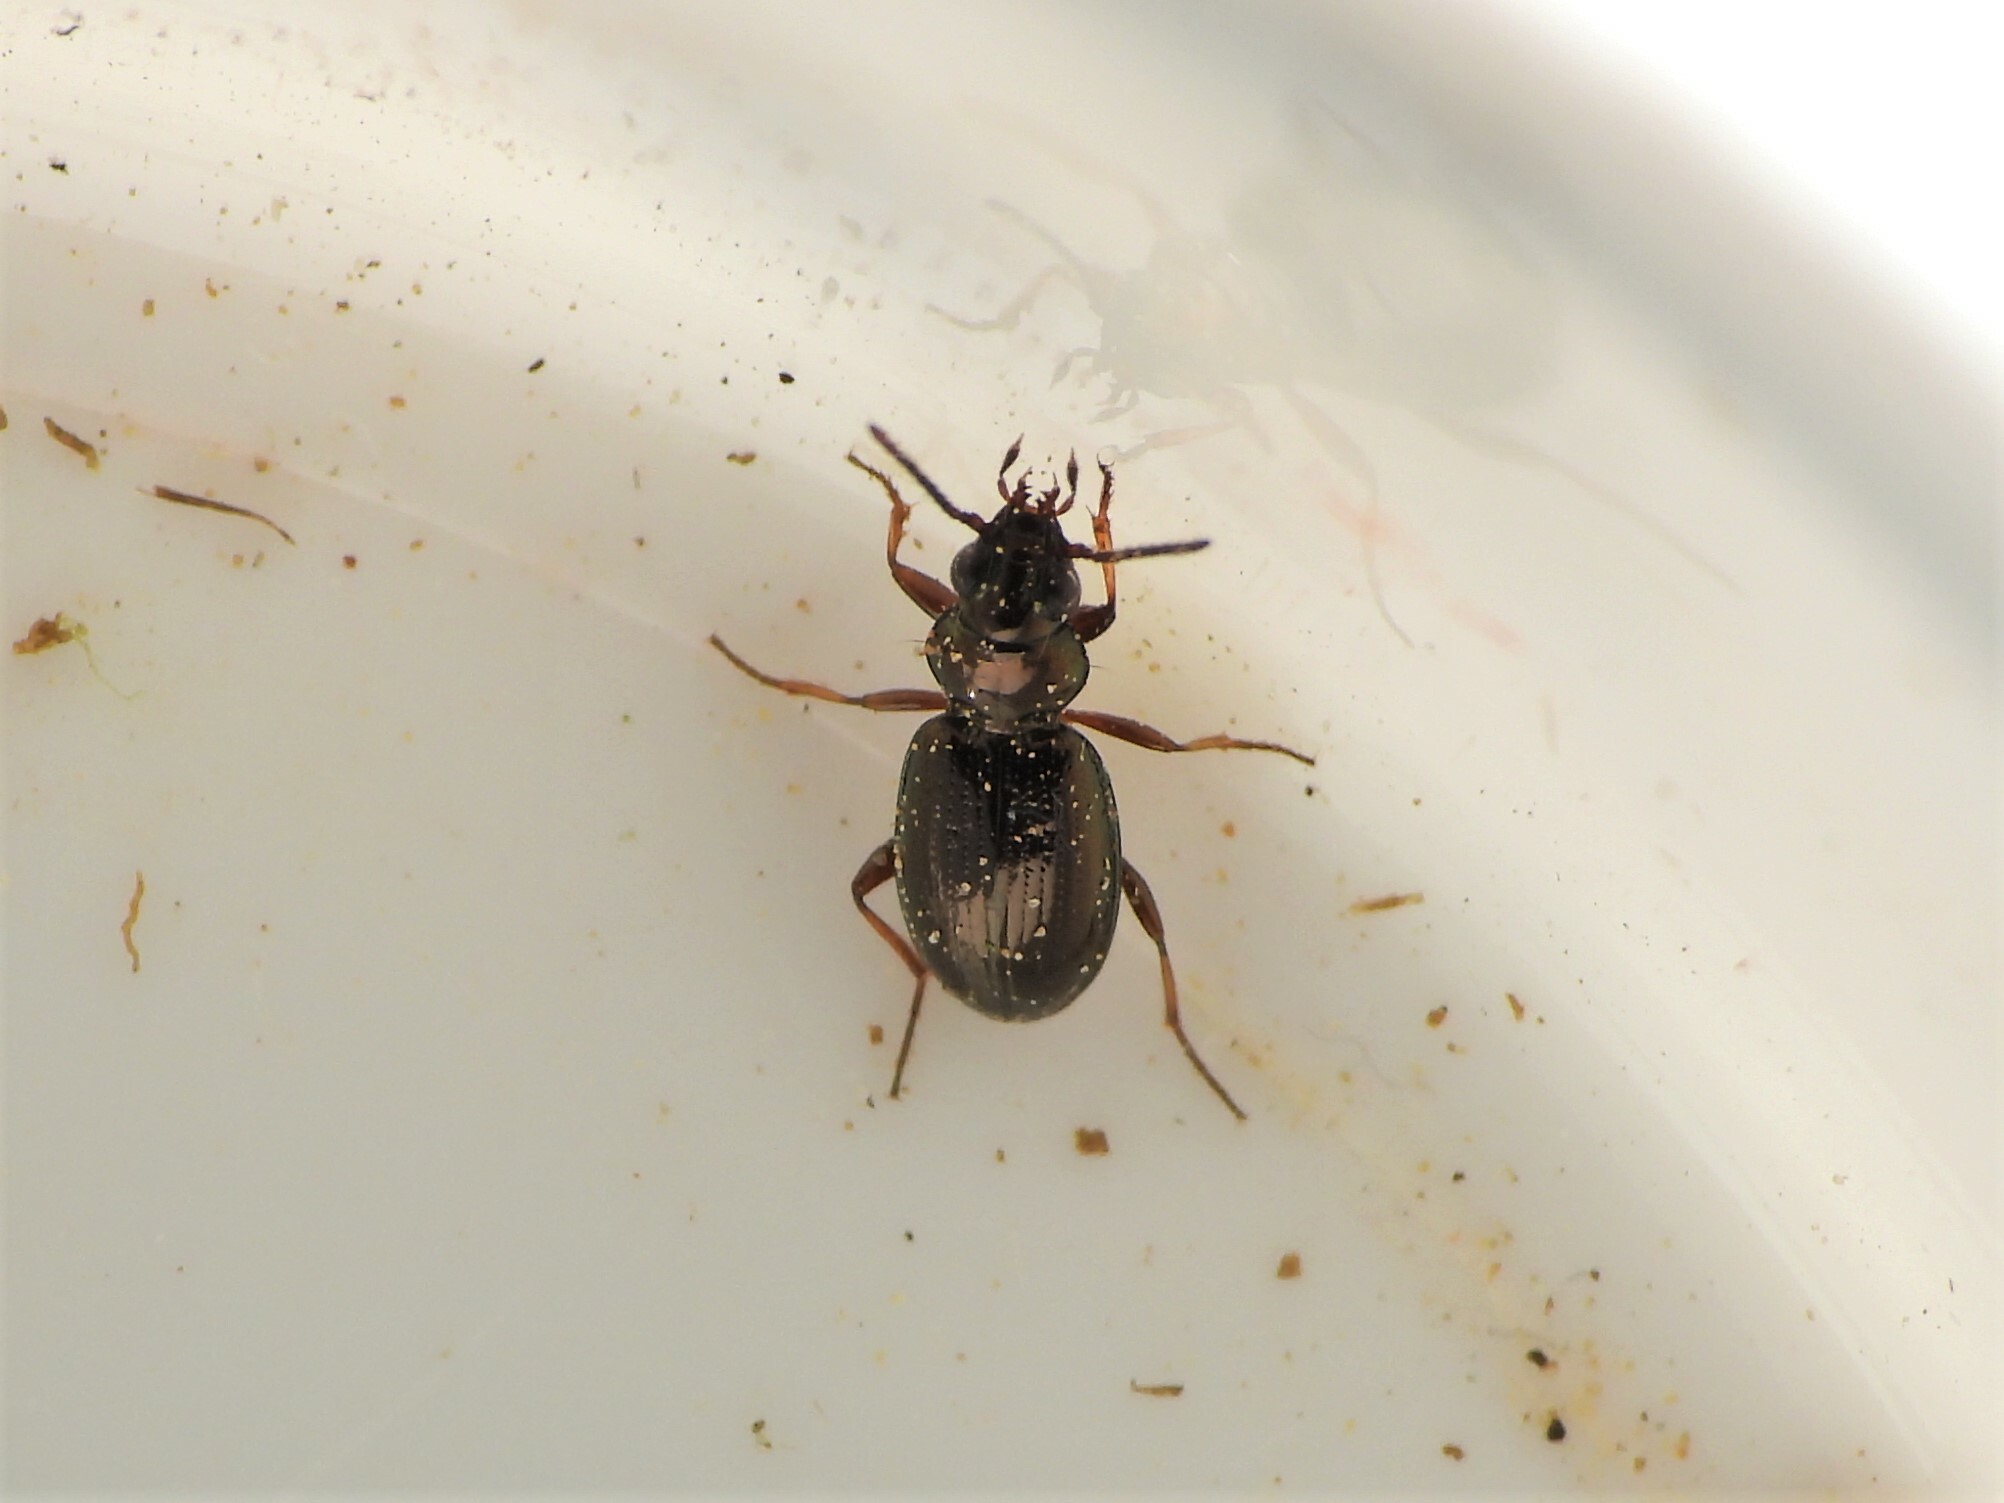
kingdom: Animalia
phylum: Arthropoda
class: Insecta
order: Coleoptera
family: Carabidae
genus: Bembidion
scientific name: Bembidion lampros
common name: Shiny riverbank ground beetle
